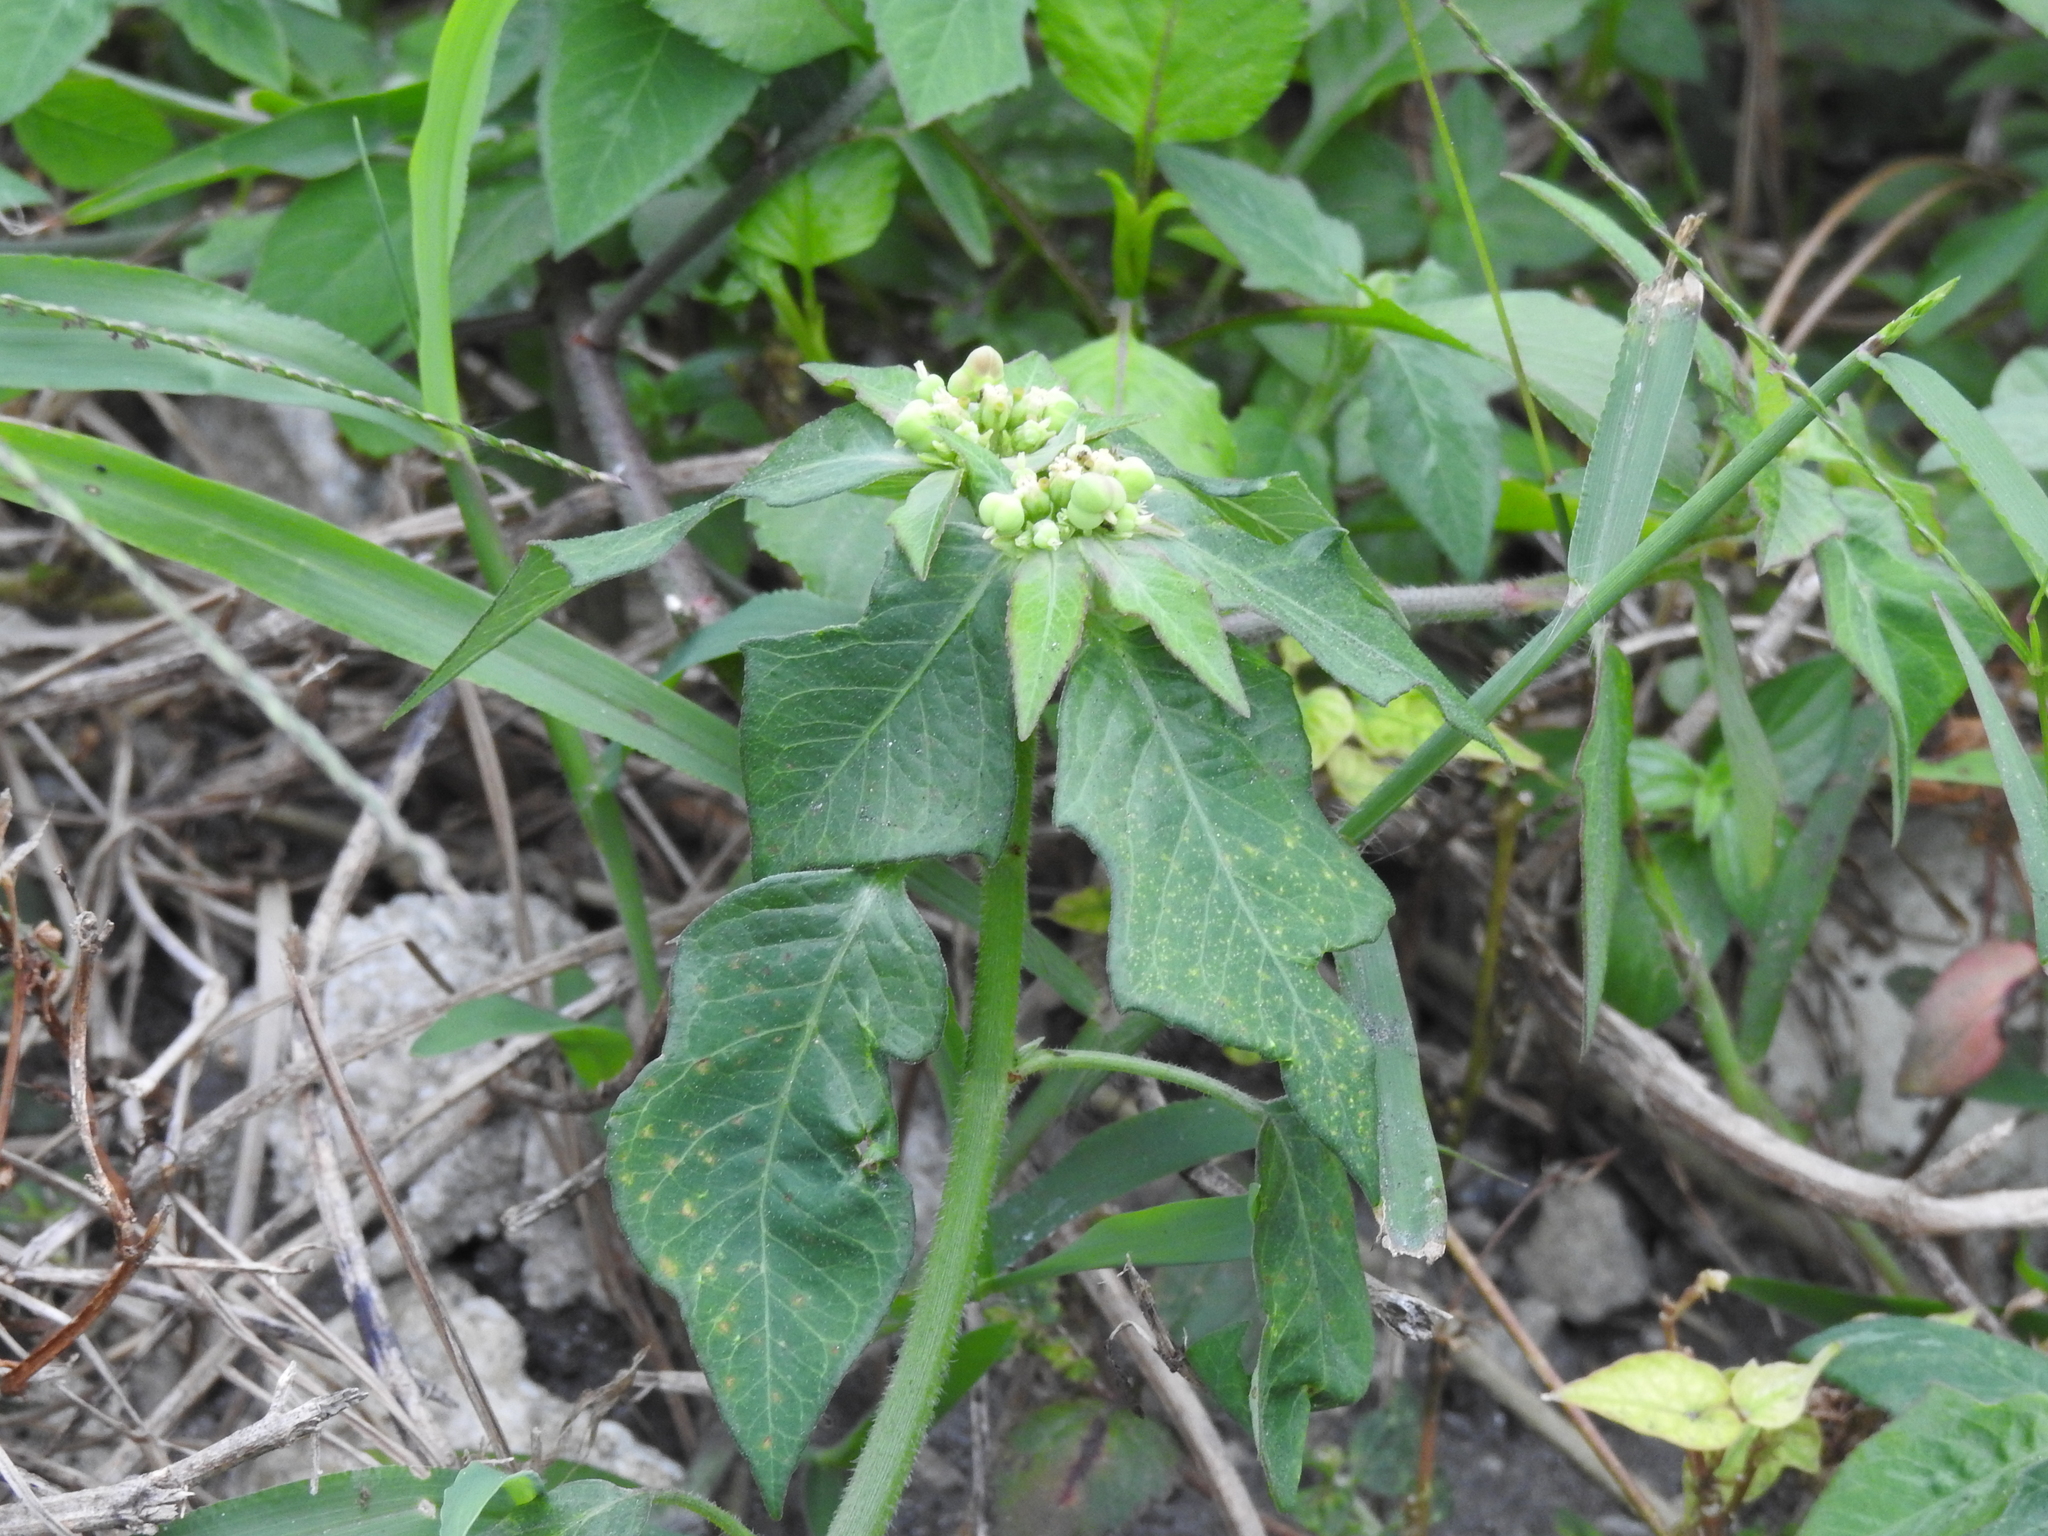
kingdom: Plantae
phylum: Tracheophyta
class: Magnoliopsida
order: Malpighiales
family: Euphorbiaceae
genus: Euphorbia
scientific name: Euphorbia heterophylla
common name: Mexican fireplant
